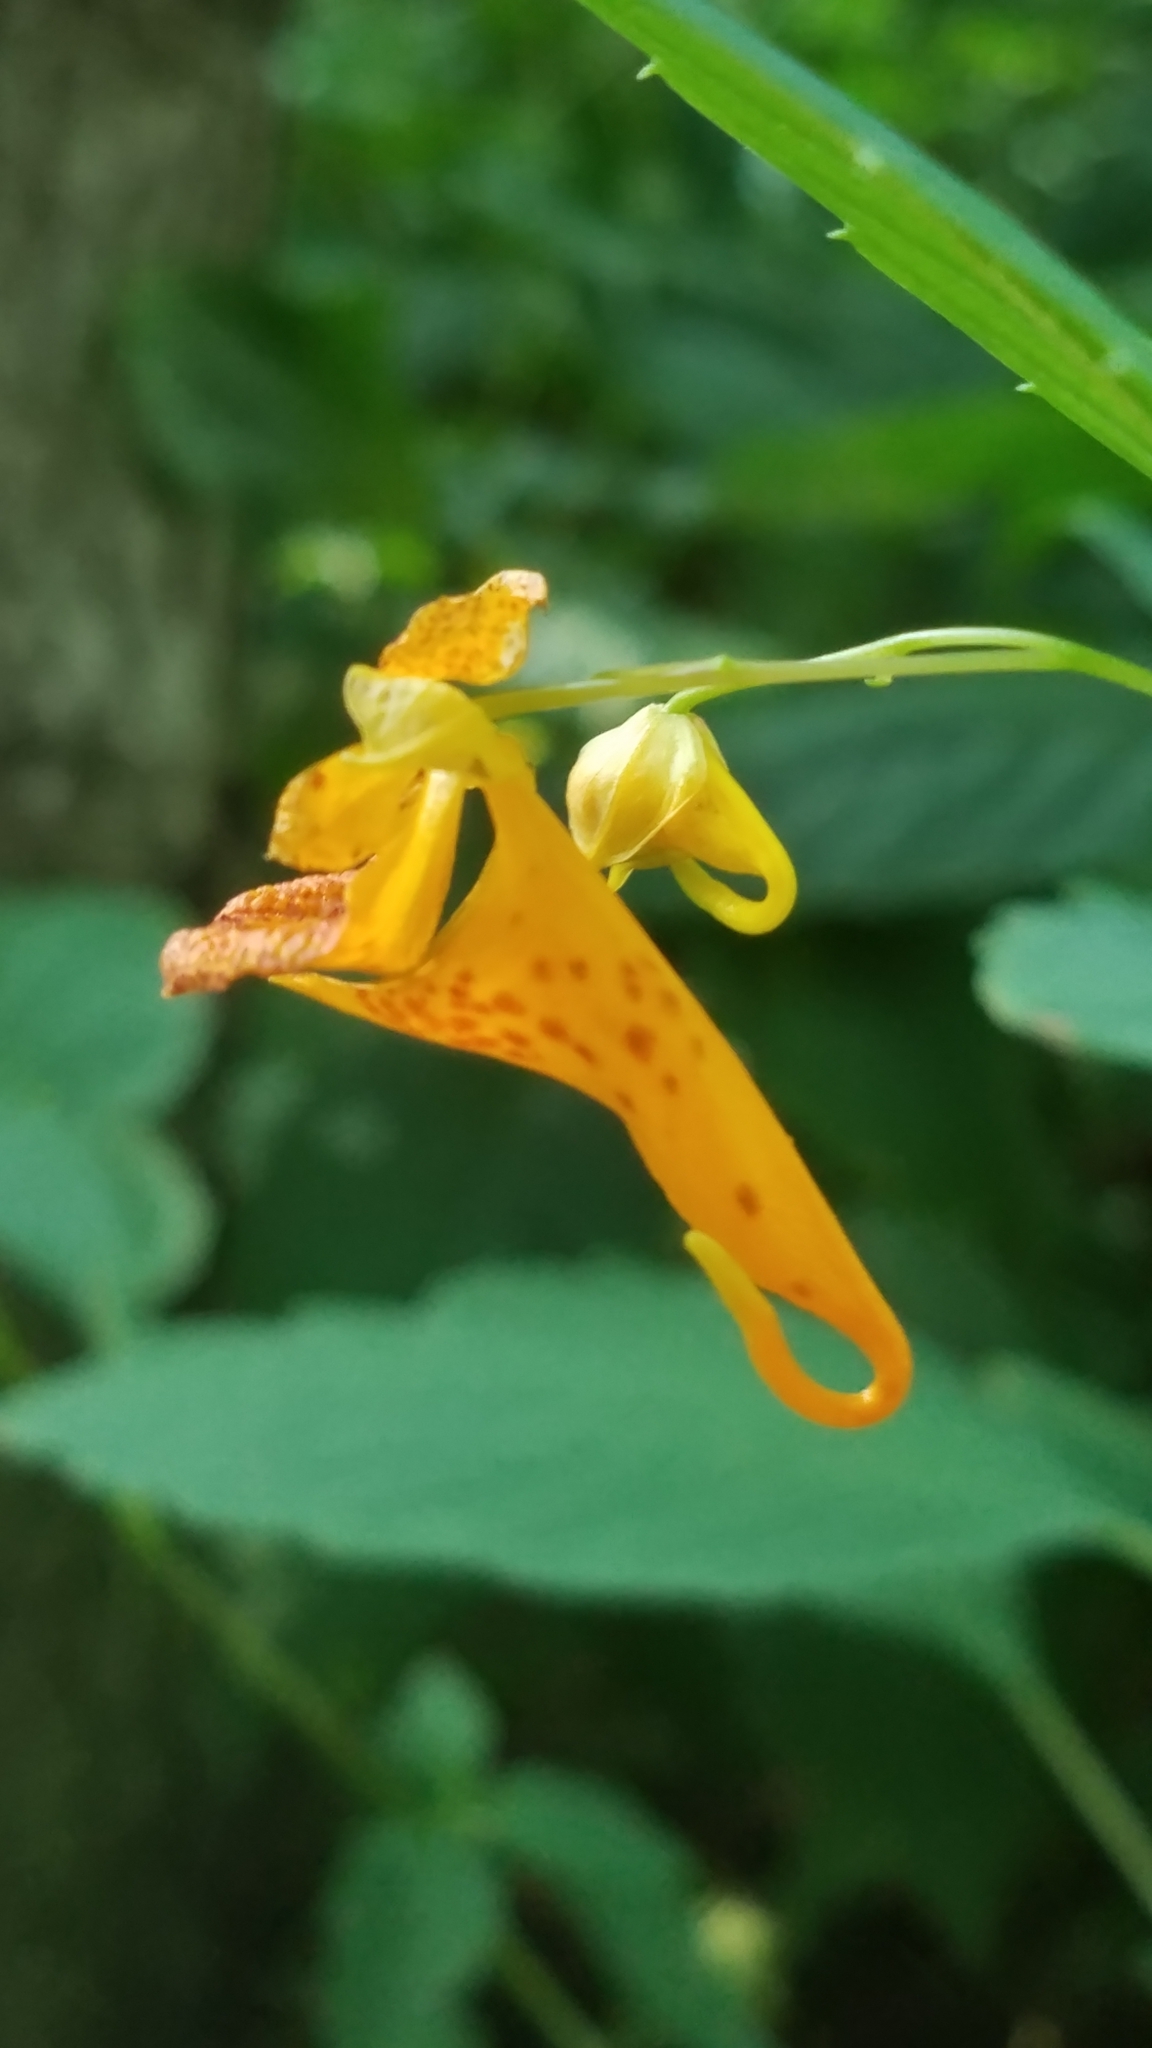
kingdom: Plantae
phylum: Tracheophyta
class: Magnoliopsida
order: Ericales
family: Balsaminaceae
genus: Impatiens
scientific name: Impatiens capensis
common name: Orange balsam
